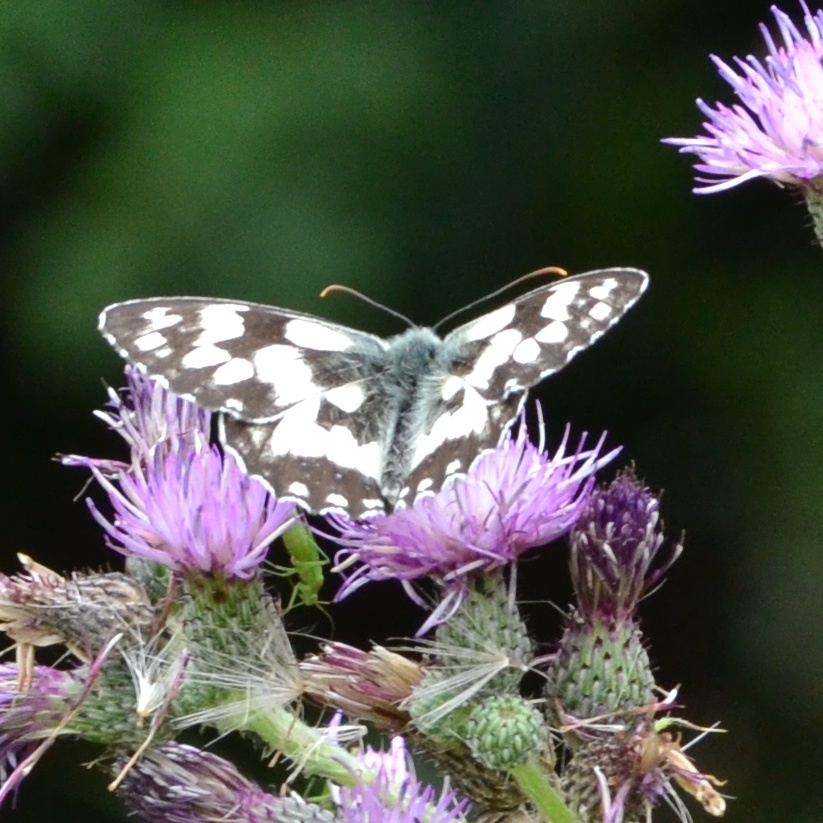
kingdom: Animalia
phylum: Arthropoda
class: Insecta
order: Lepidoptera
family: Nymphalidae
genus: Melanargia
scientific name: Melanargia galathea
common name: Marbled white
